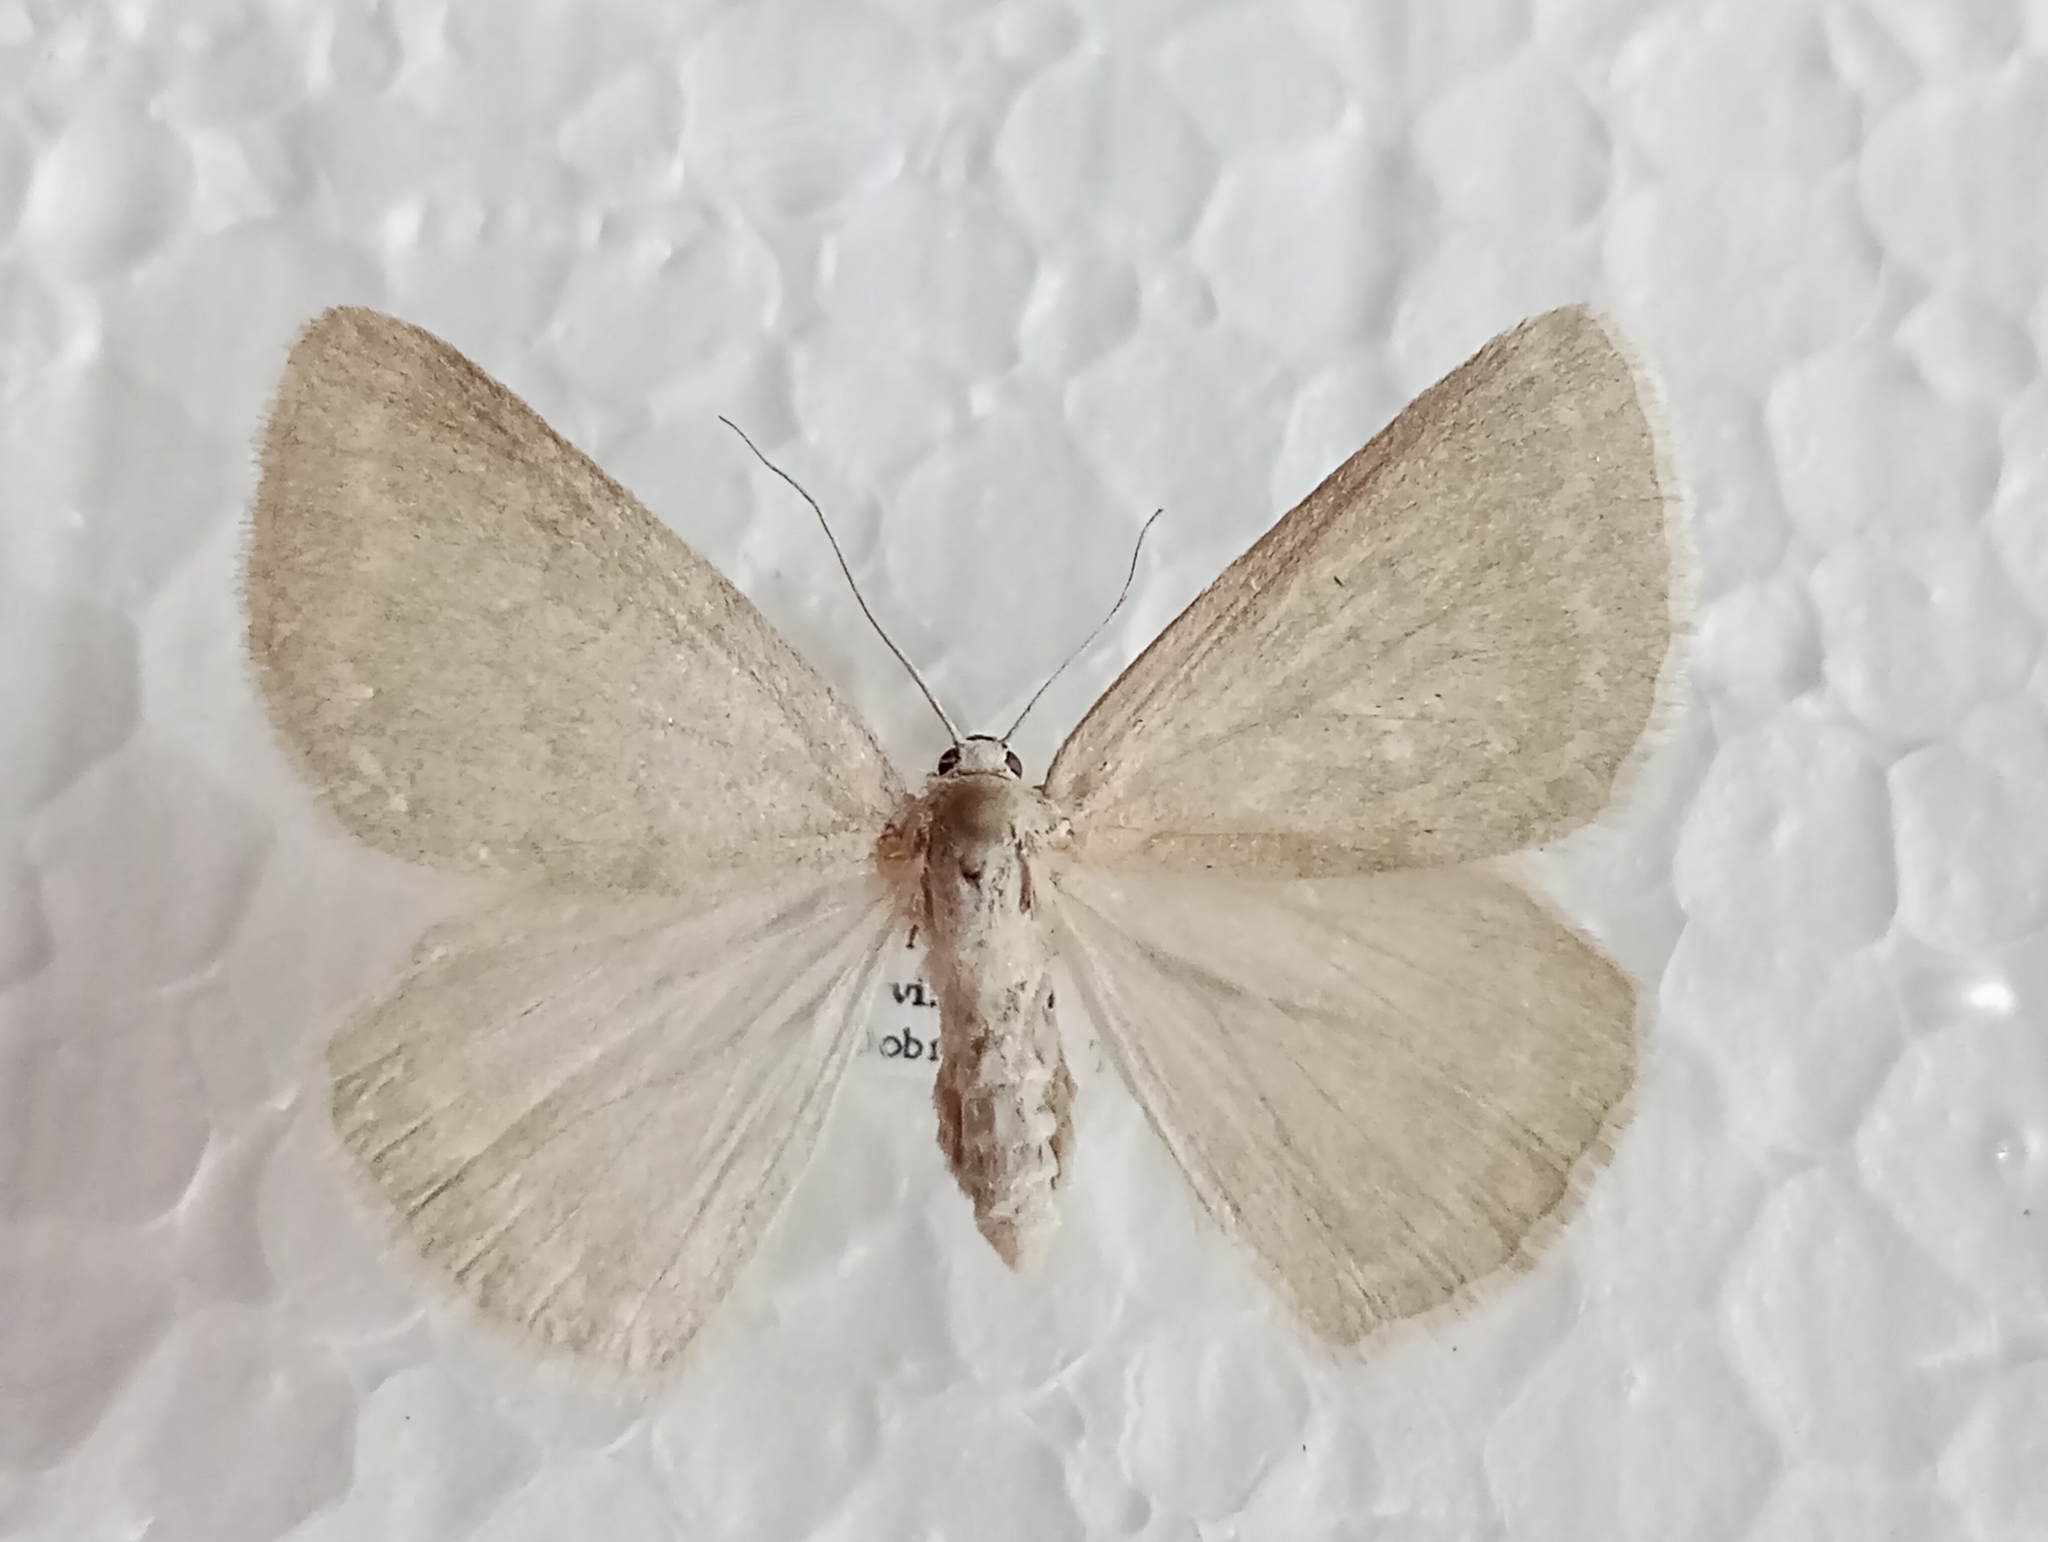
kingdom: Animalia
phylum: Arthropoda
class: Insecta
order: Lepidoptera
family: Geometridae
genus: Pseudoterpna
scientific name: Pseudoterpna pruinata
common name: Grass emerald
